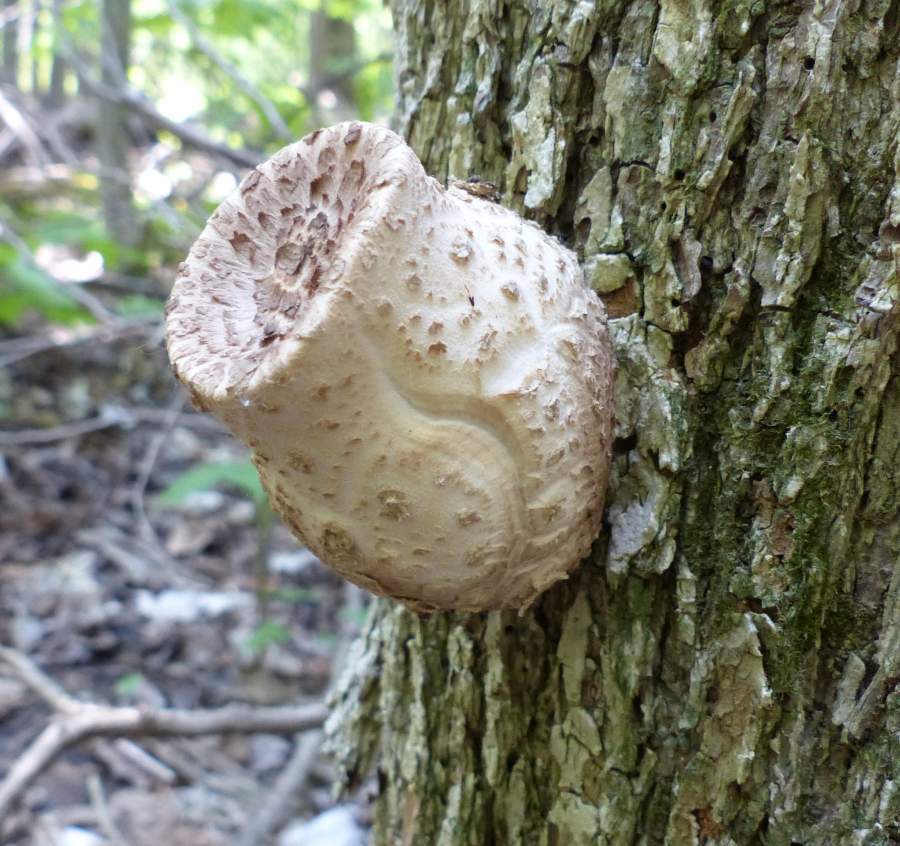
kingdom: Fungi
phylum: Basidiomycota
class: Agaricomycetes
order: Polyporales
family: Polyporaceae
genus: Cerioporus
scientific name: Cerioporus squamosus
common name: Dryad's saddle
